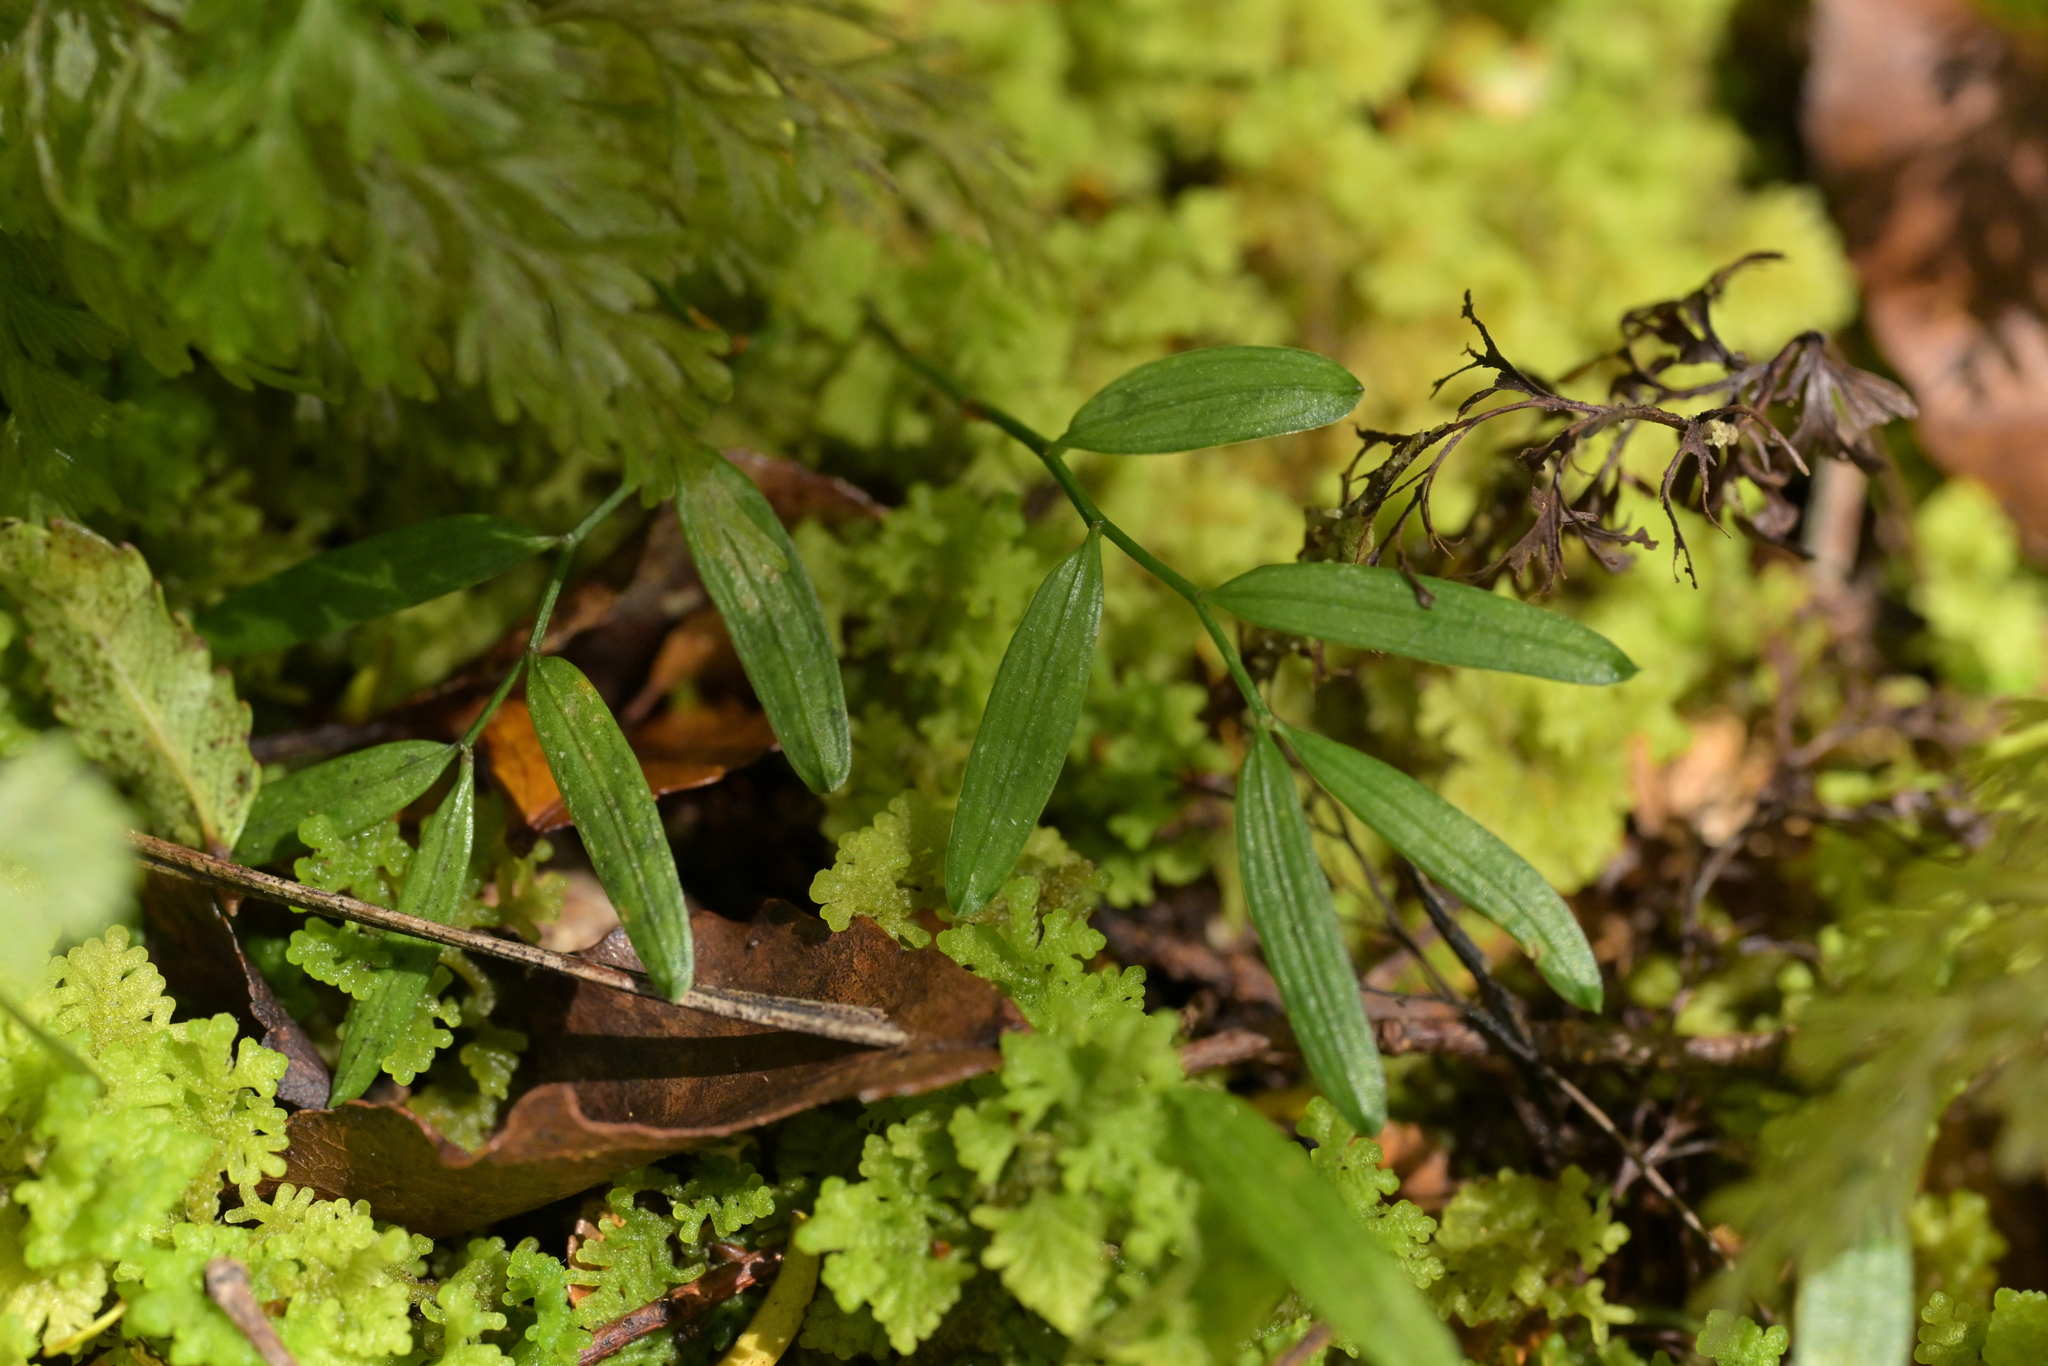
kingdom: Plantae
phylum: Tracheophyta
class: Liliopsida
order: Liliales
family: Alstroemeriaceae
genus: Luzuriaga
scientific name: Luzuriaga parviflora
